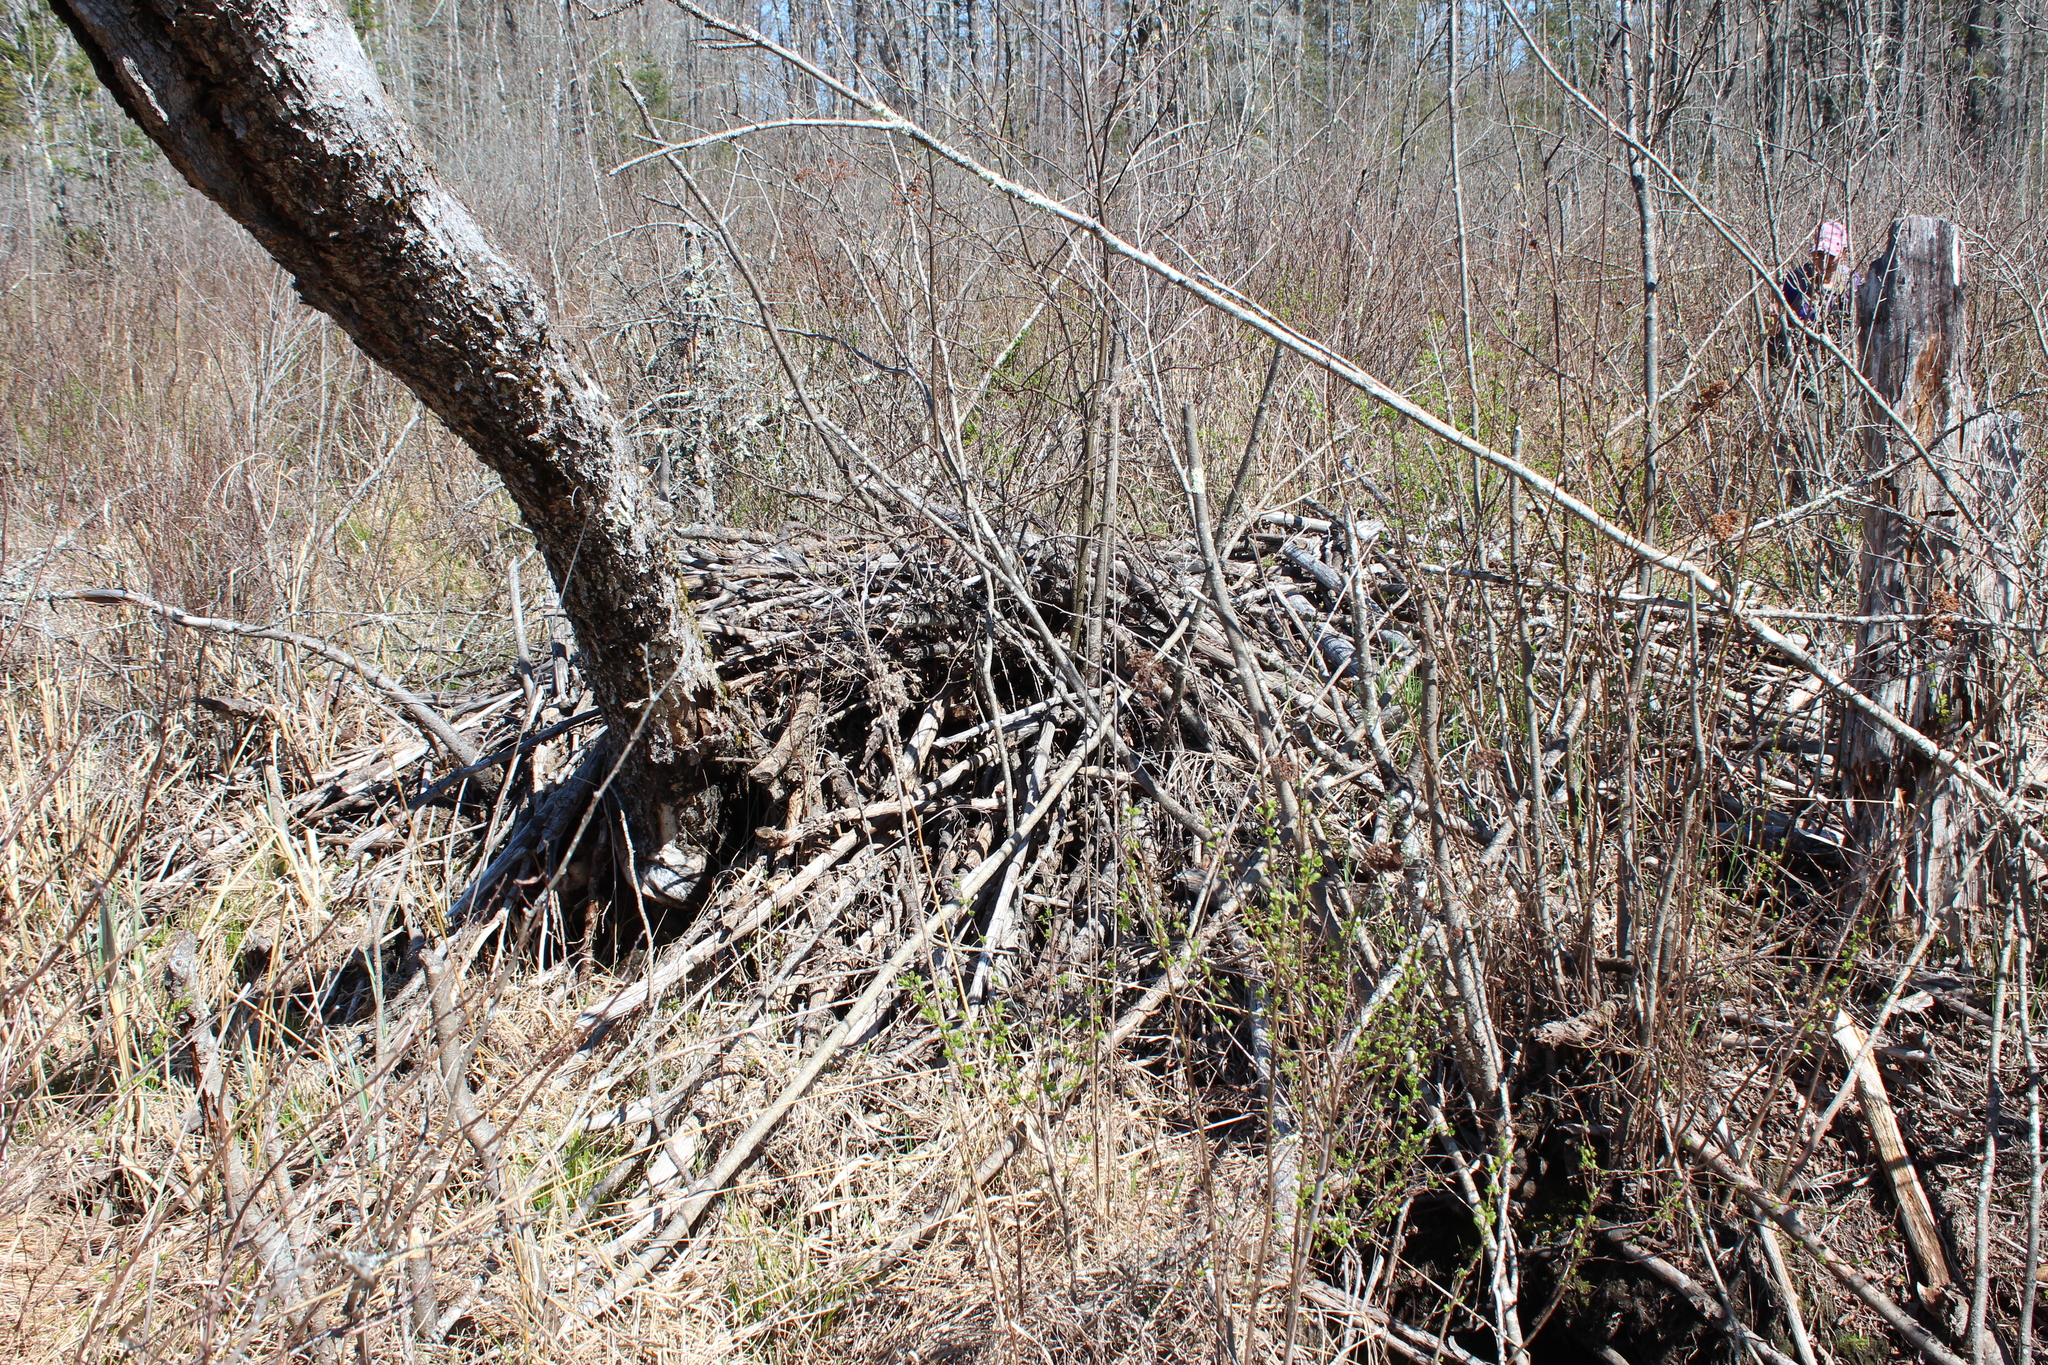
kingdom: Animalia
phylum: Chordata
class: Mammalia
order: Rodentia
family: Castoridae
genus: Castor
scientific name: Castor canadensis
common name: American beaver
